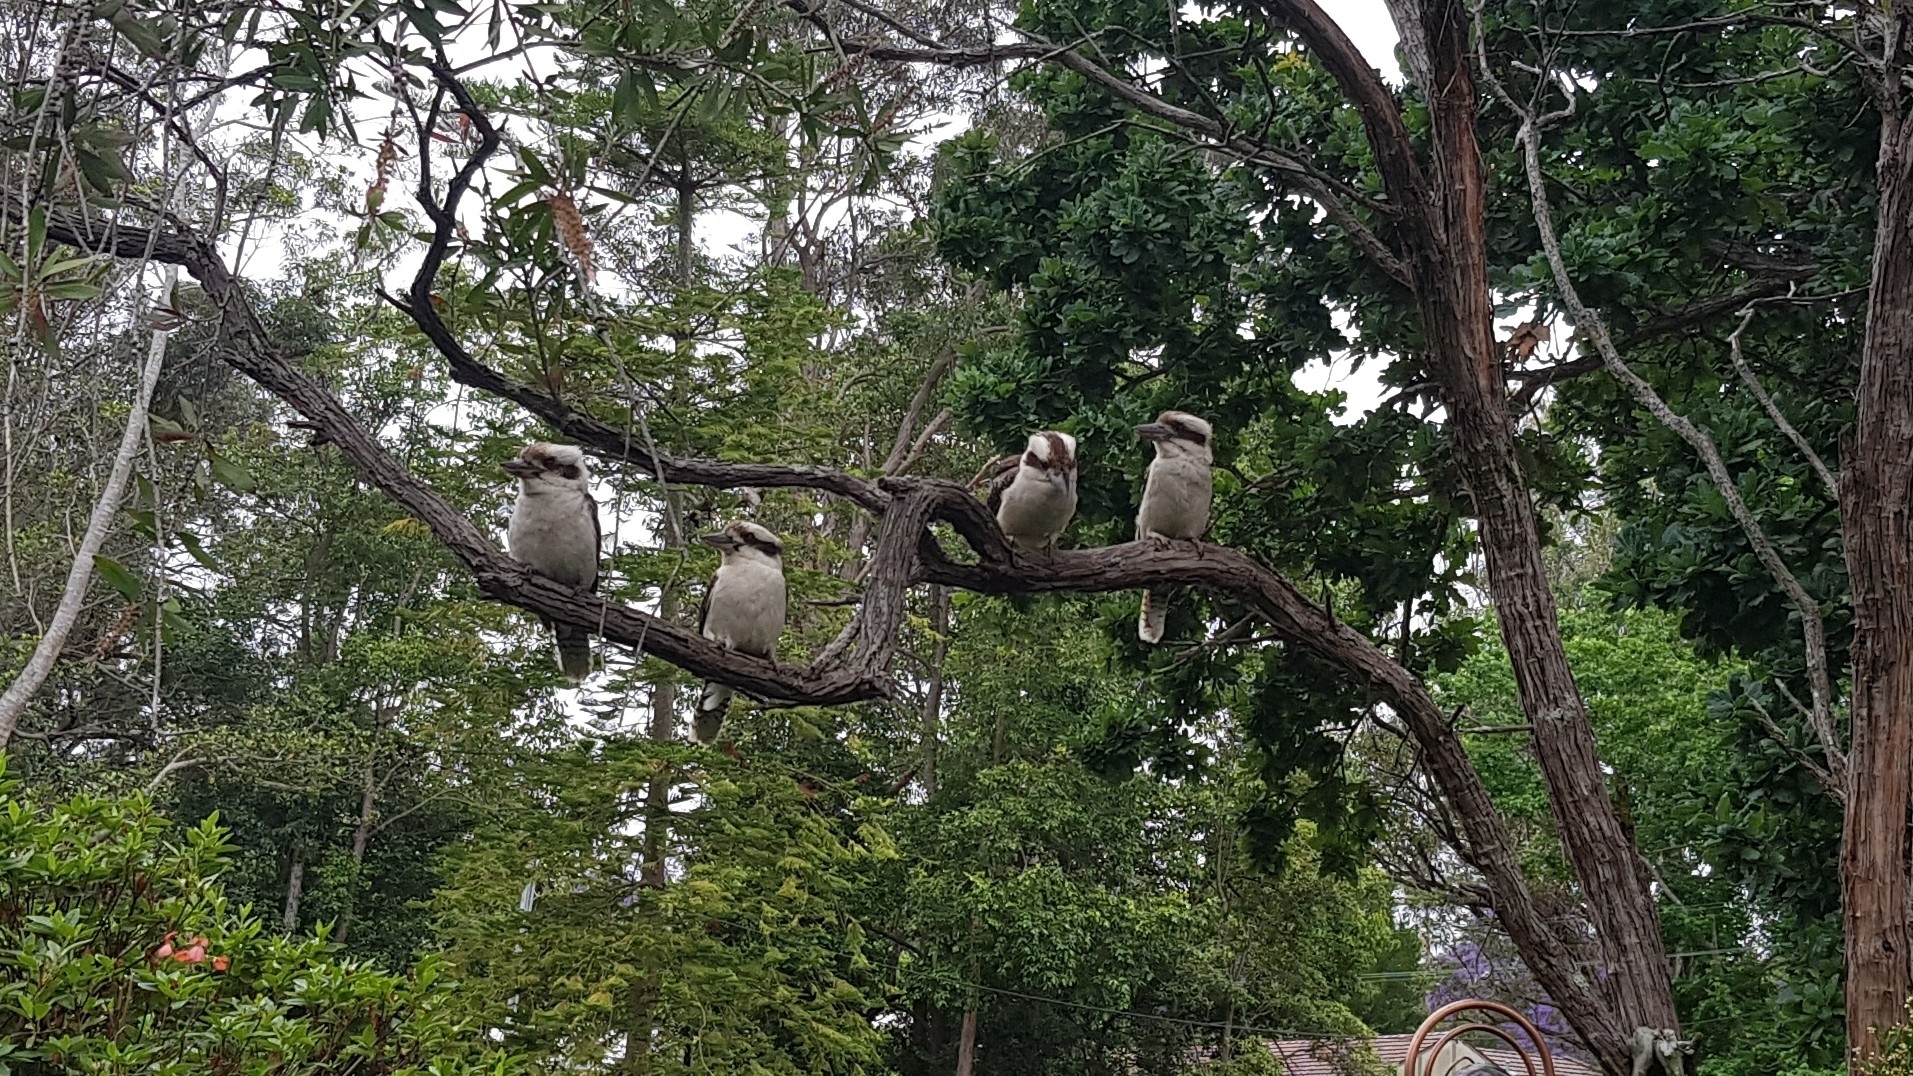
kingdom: Animalia
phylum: Chordata
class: Aves
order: Coraciiformes
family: Alcedinidae
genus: Dacelo
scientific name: Dacelo novaeguineae
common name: Laughing kookaburra
